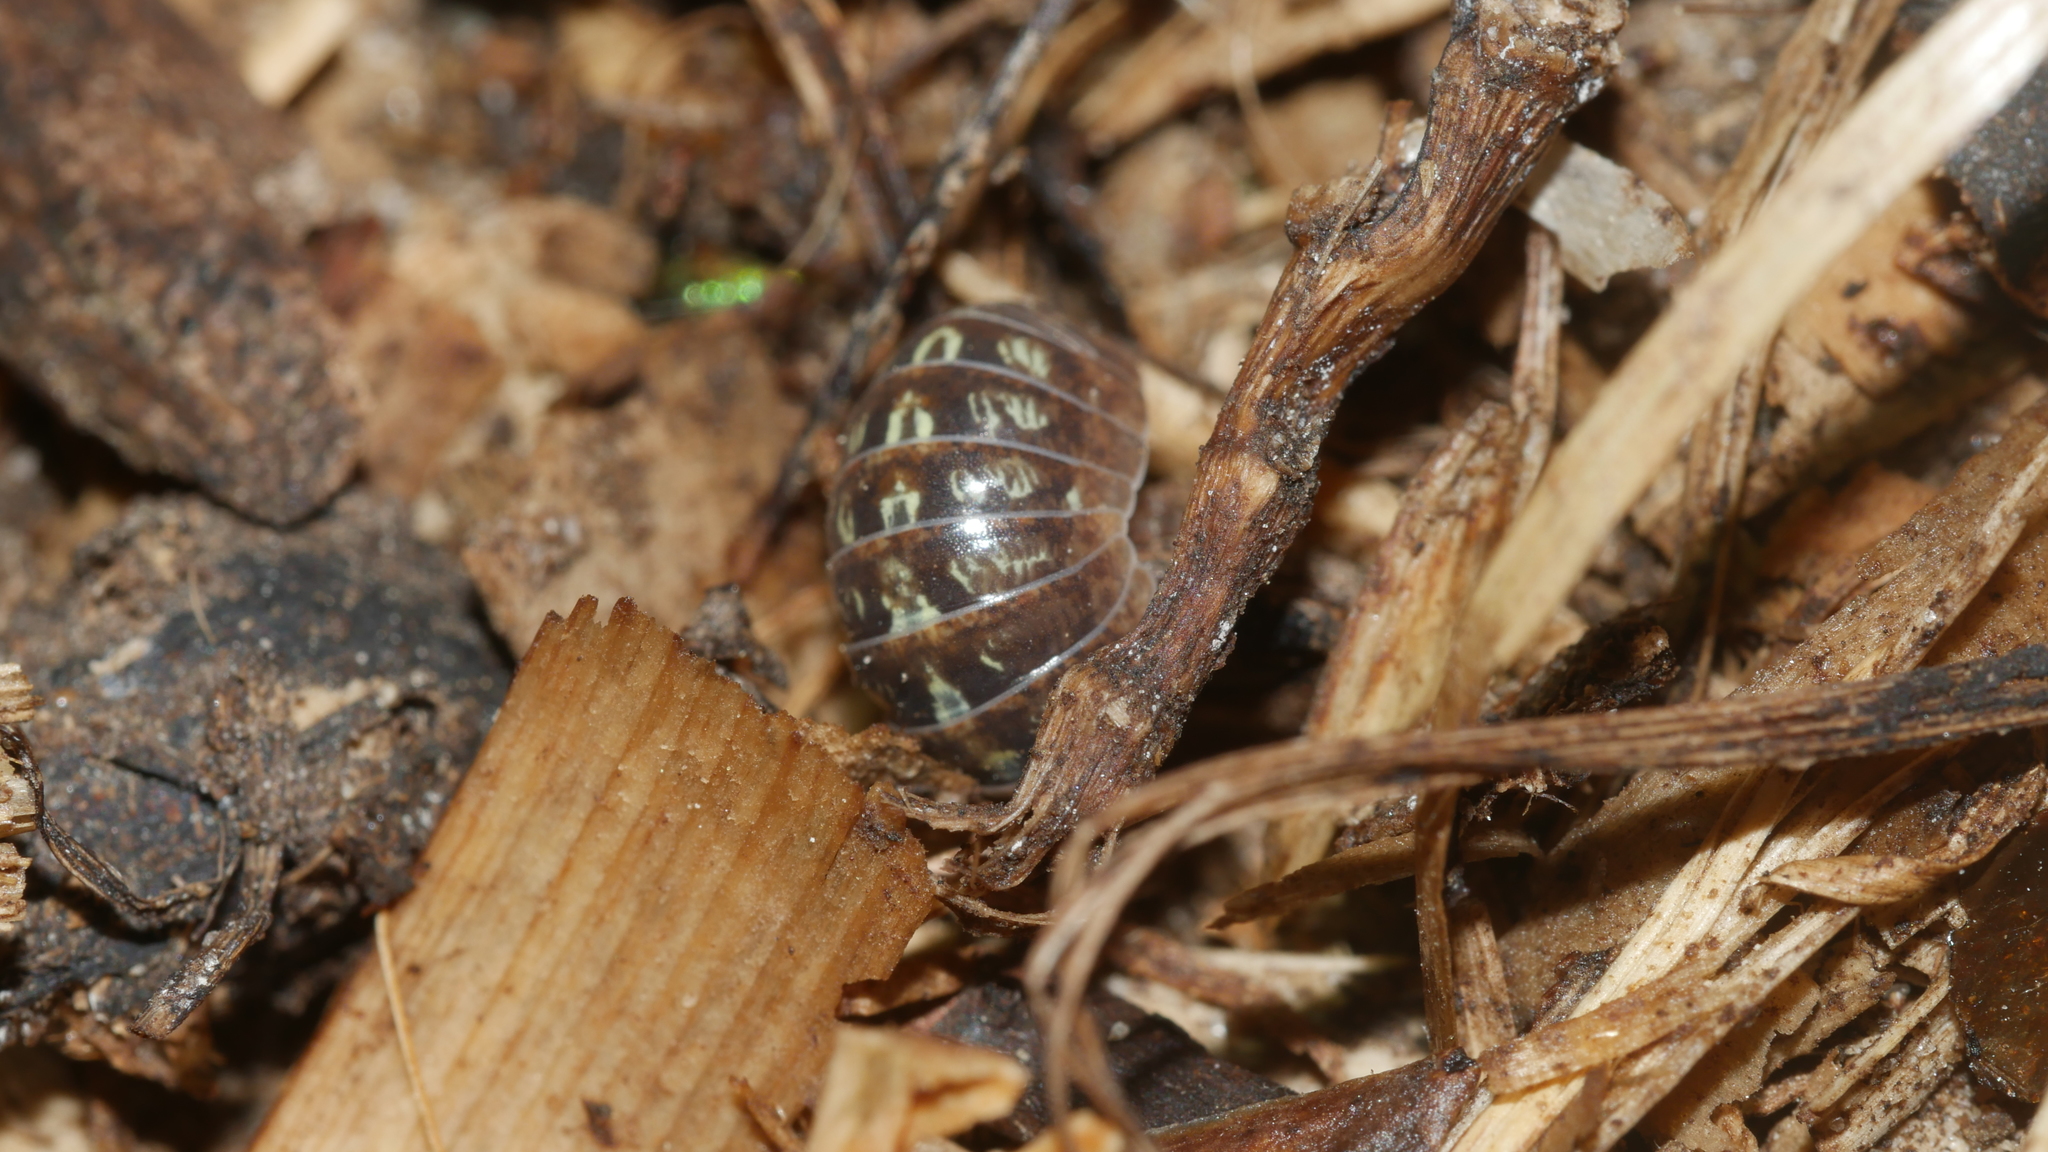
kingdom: Animalia
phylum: Arthropoda
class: Malacostraca
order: Isopoda
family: Armadillidiidae
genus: Armadillidium
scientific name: Armadillidium vulgare
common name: Common pill woodlouse
